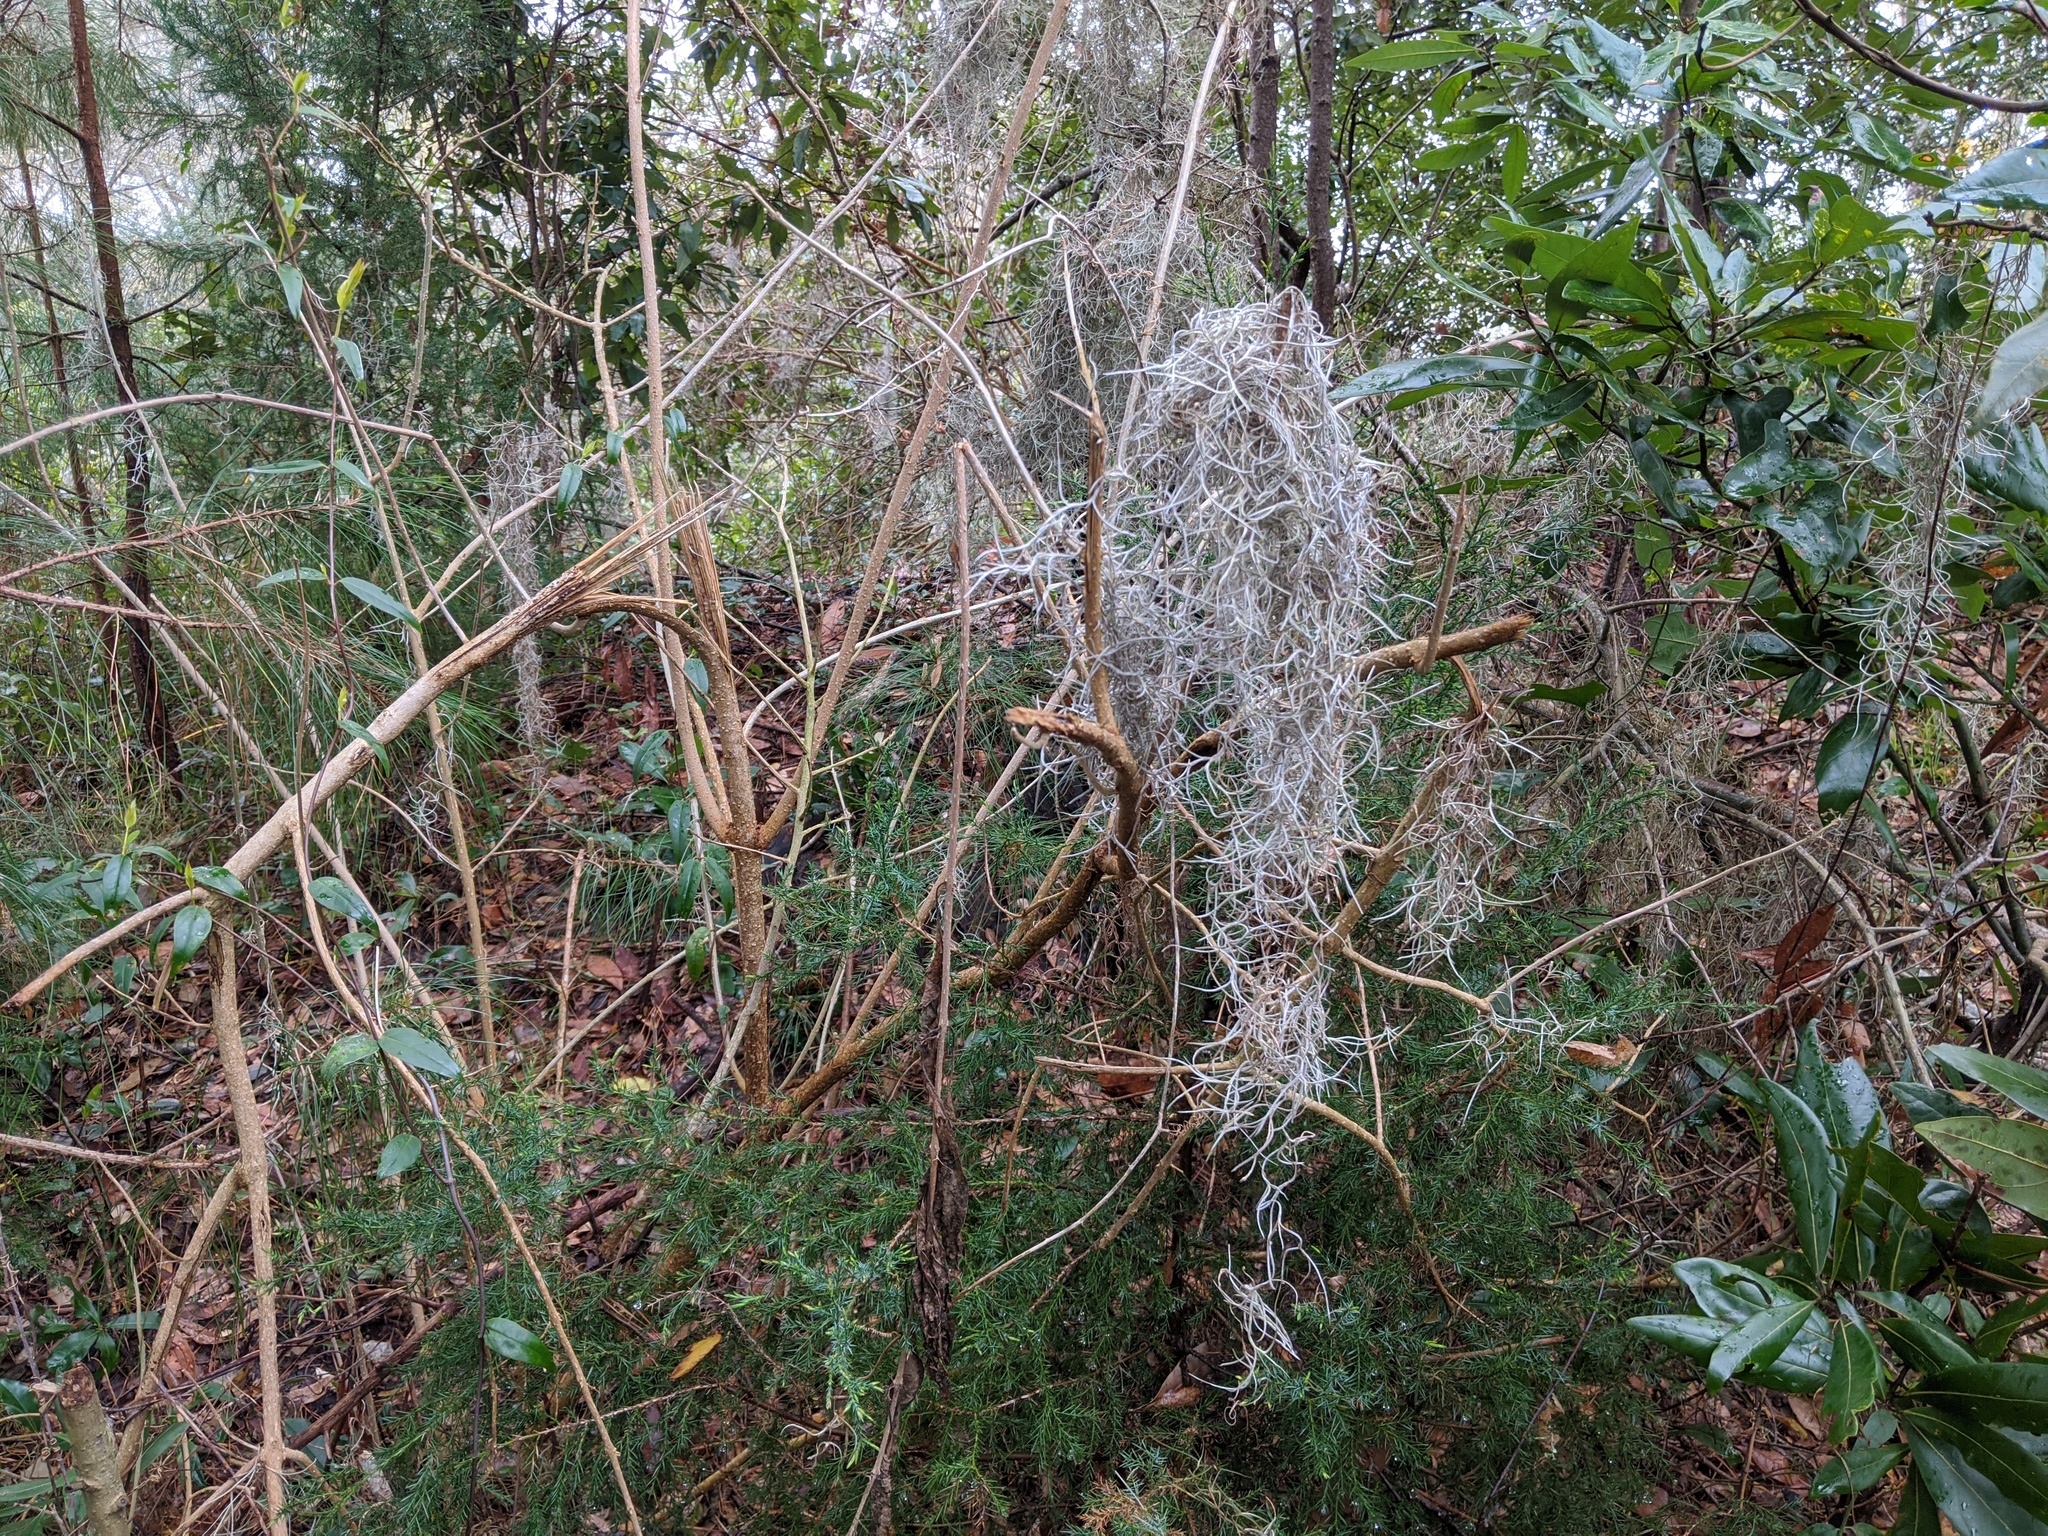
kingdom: Plantae
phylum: Tracheophyta
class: Liliopsida
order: Poales
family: Bromeliaceae
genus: Tillandsia
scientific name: Tillandsia usneoides
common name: Spanish moss
